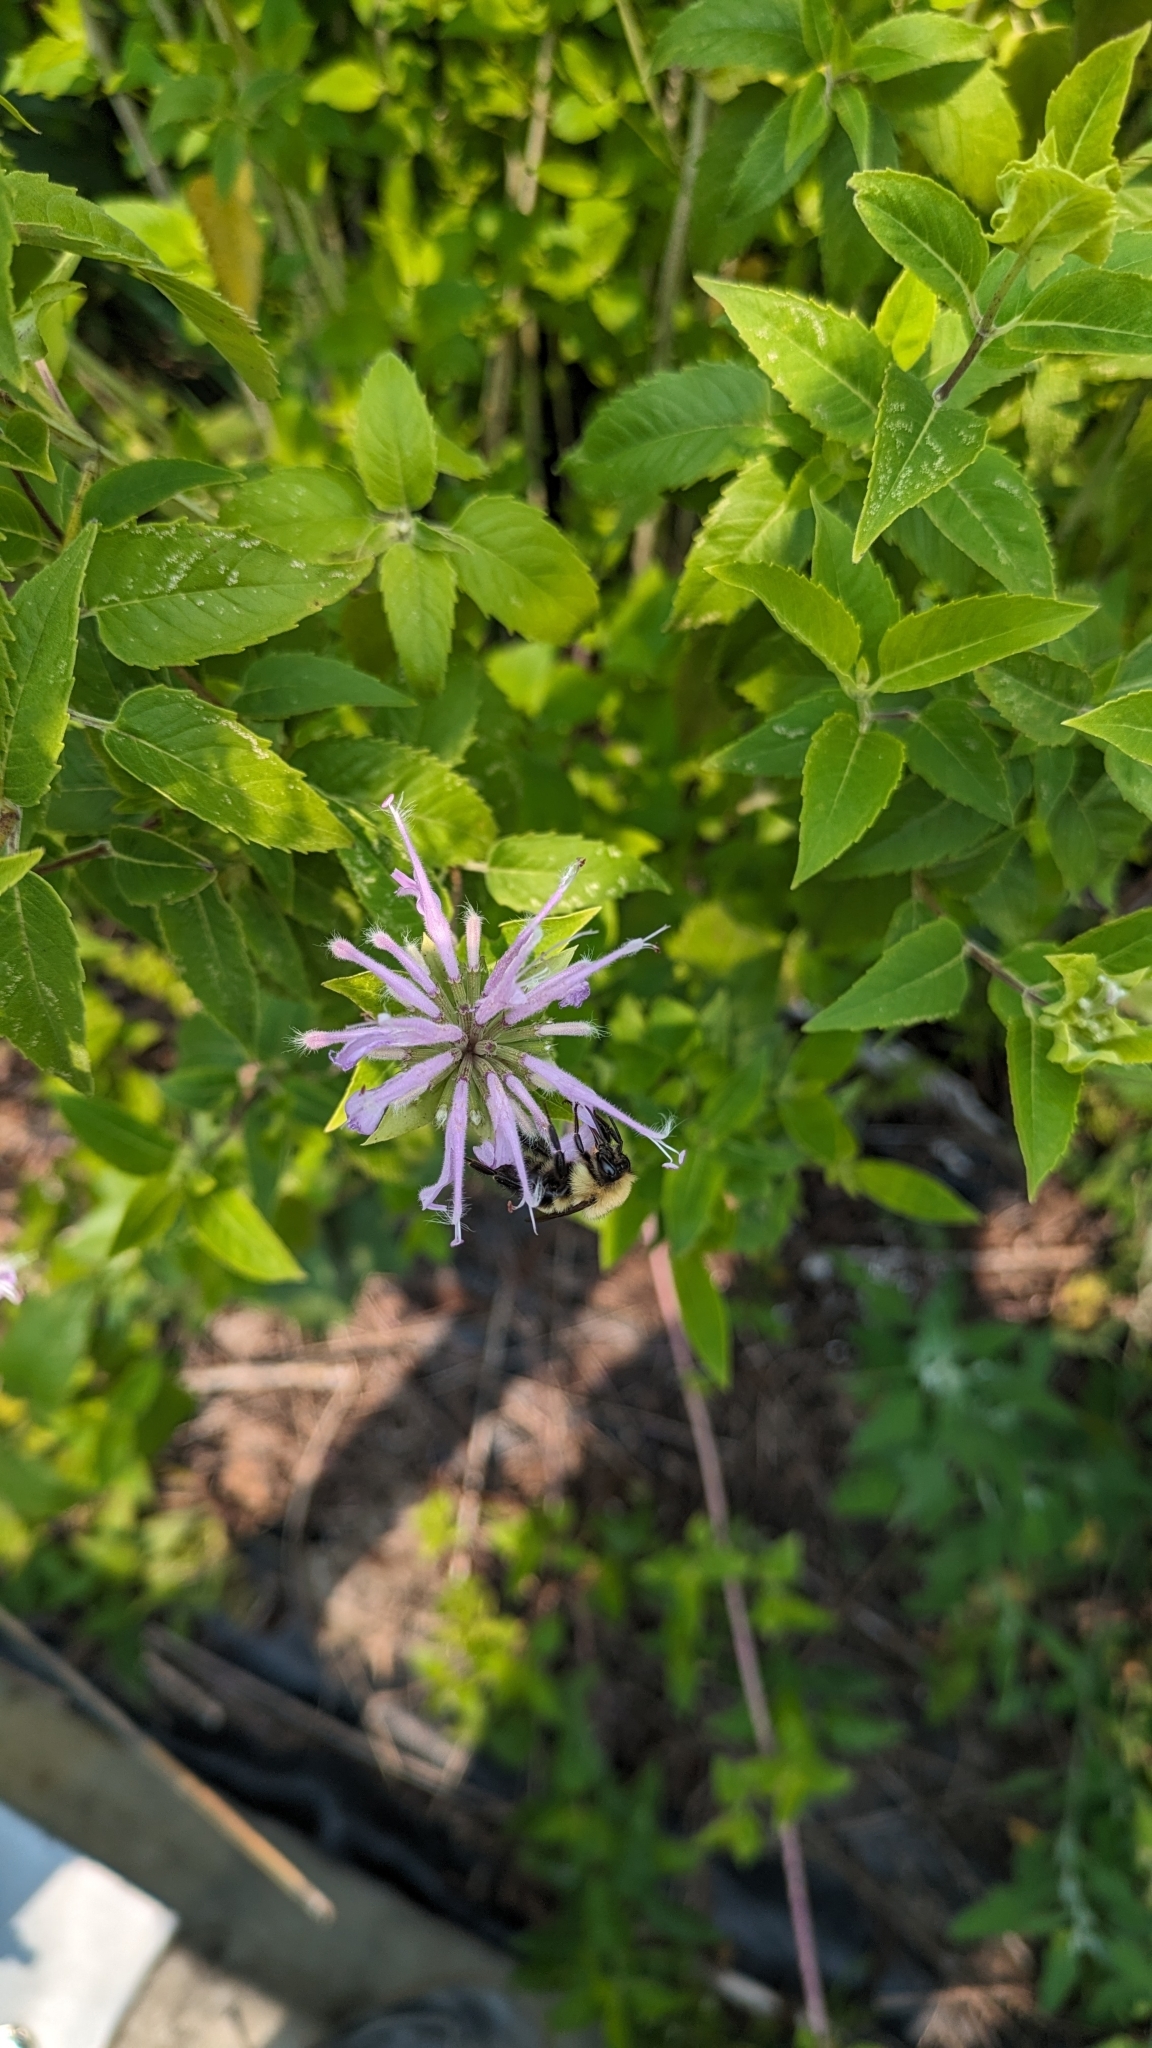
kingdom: Animalia
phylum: Arthropoda
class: Insecta
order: Hymenoptera
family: Apidae
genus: Bombus
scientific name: Bombus bimaculatus
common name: Two-spotted bumble bee
